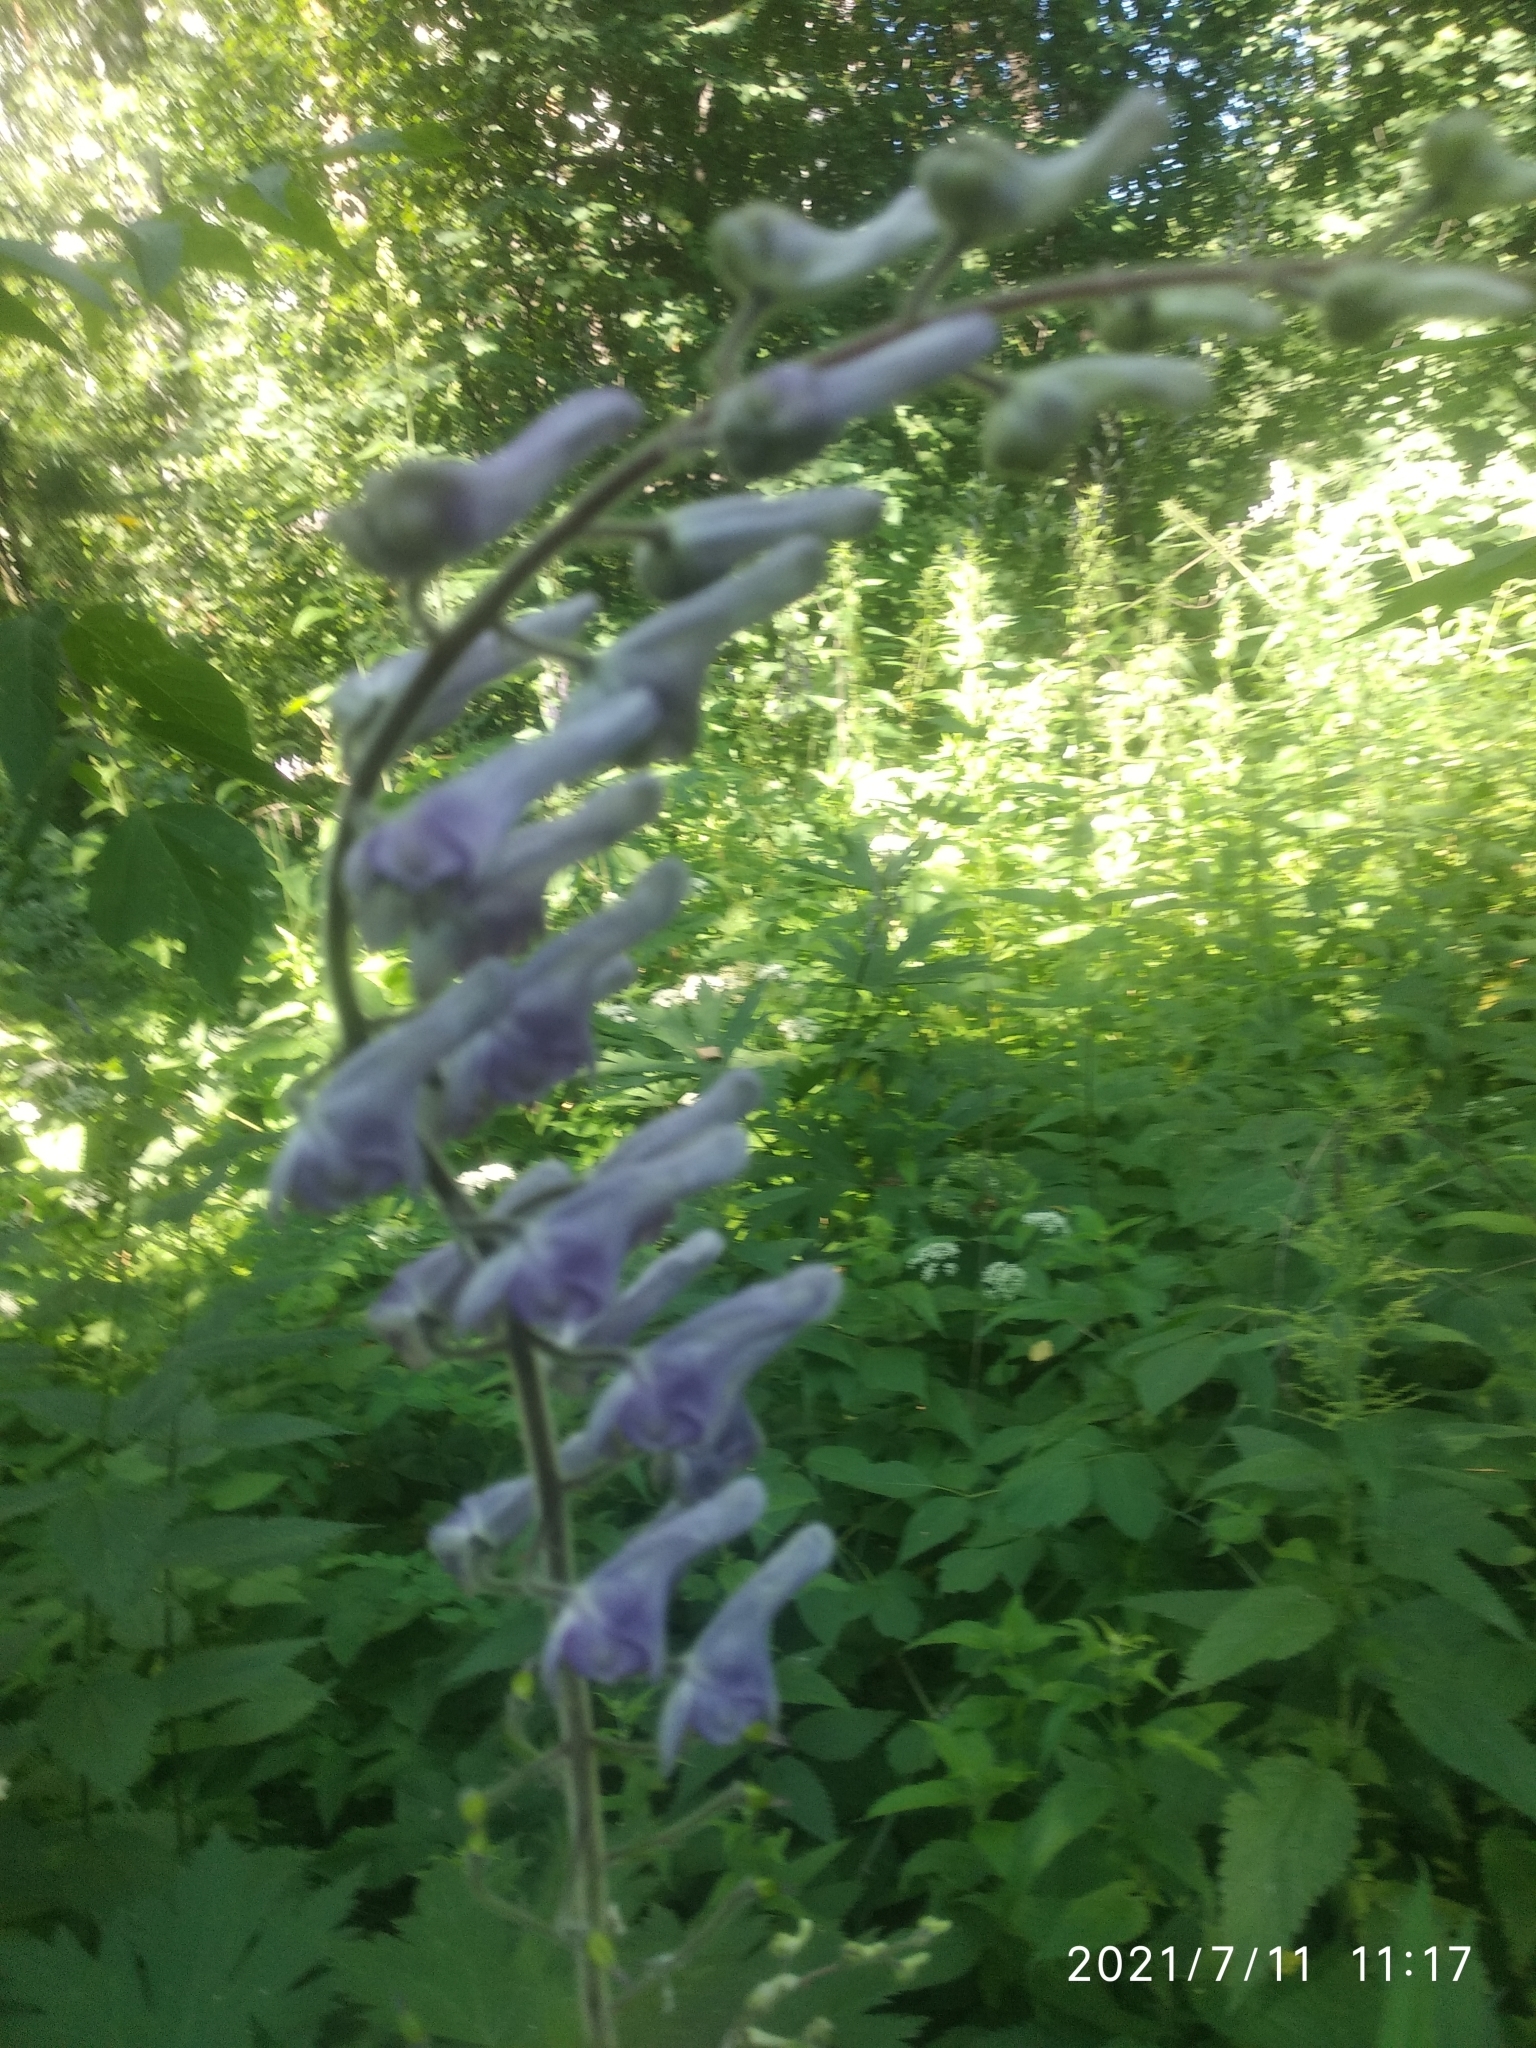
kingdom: Plantae
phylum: Tracheophyta
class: Magnoliopsida
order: Ranunculales
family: Ranunculaceae
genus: Aconitum
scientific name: Aconitum septentrionale
